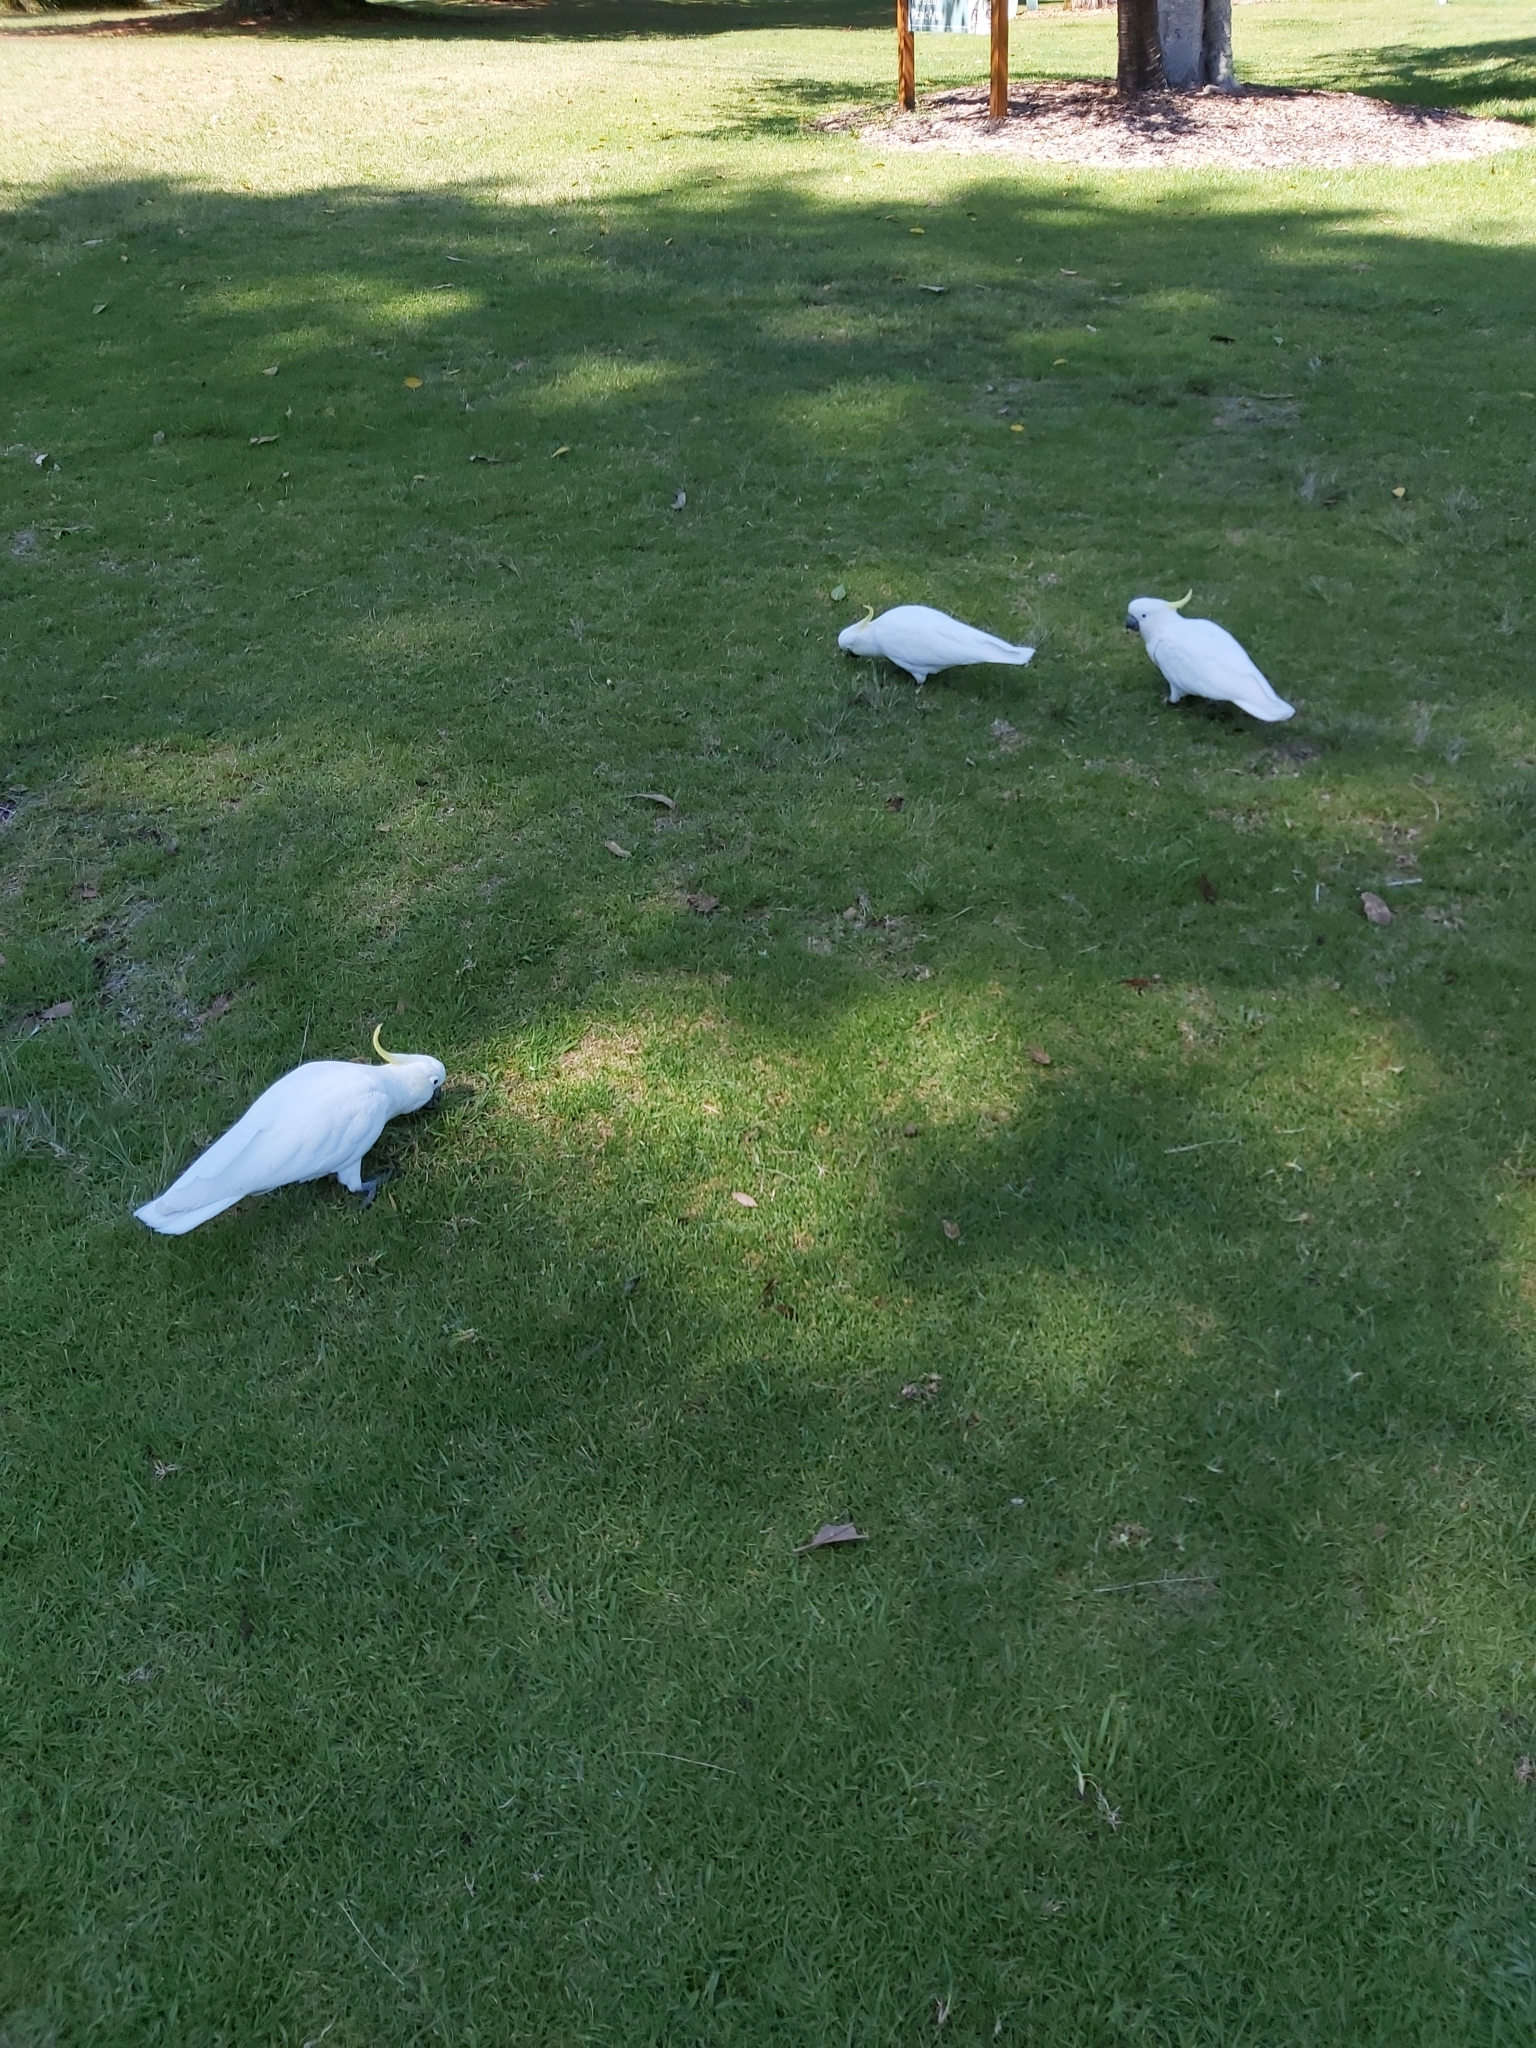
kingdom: Animalia
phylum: Chordata
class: Aves
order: Psittaciformes
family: Psittacidae
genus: Cacatua
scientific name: Cacatua galerita
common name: Sulphur-crested cockatoo
